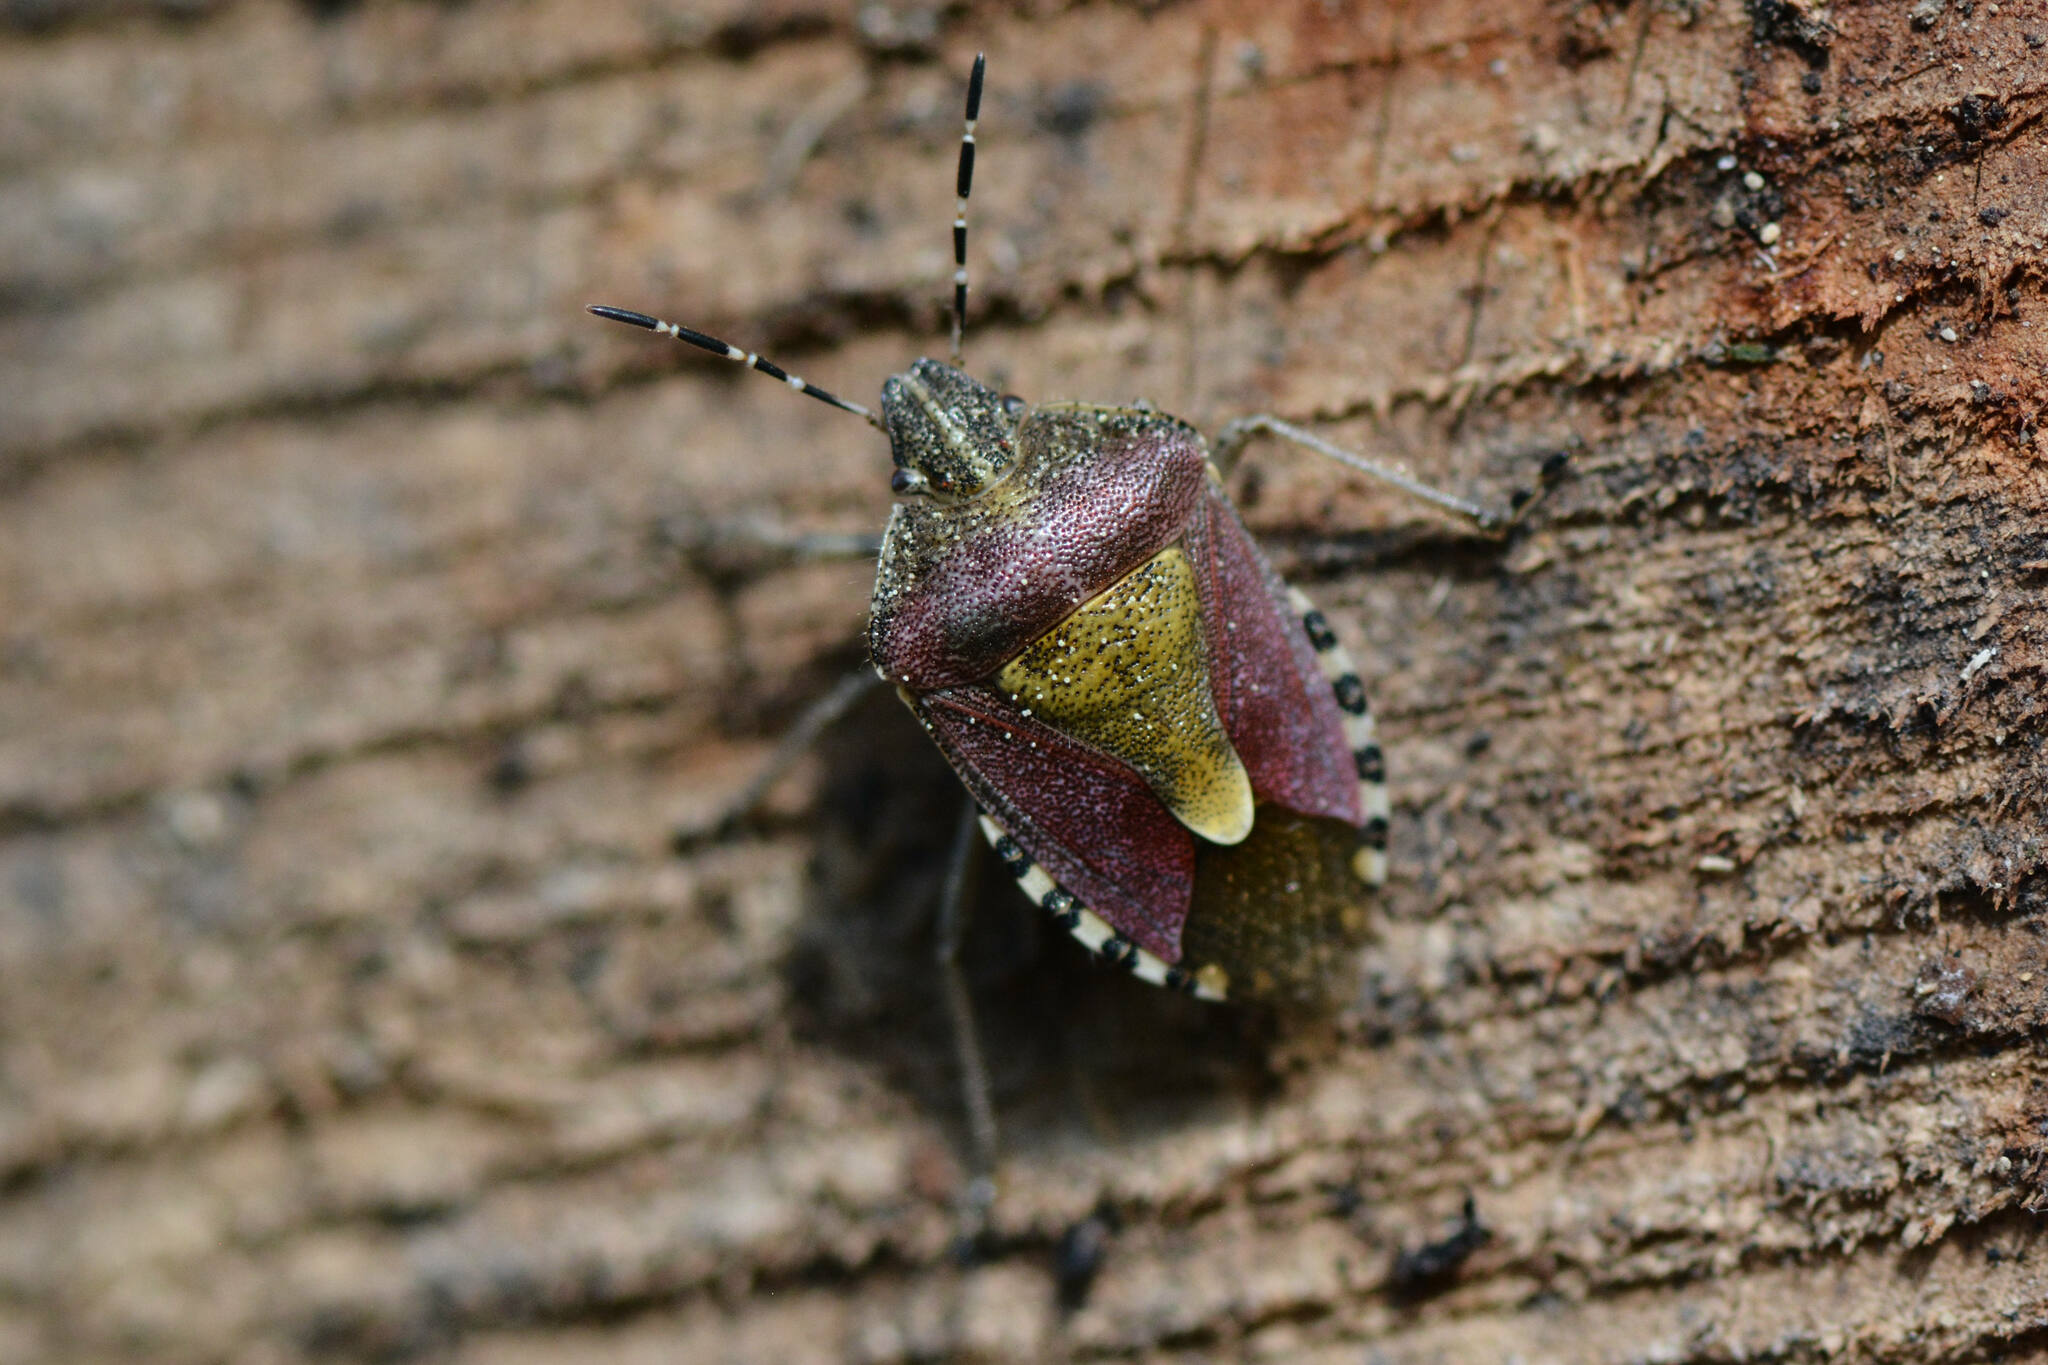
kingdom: Animalia
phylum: Arthropoda
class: Insecta
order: Hemiptera
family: Pentatomidae
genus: Dolycoris
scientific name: Dolycoris baccarum
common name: Sloe bug
